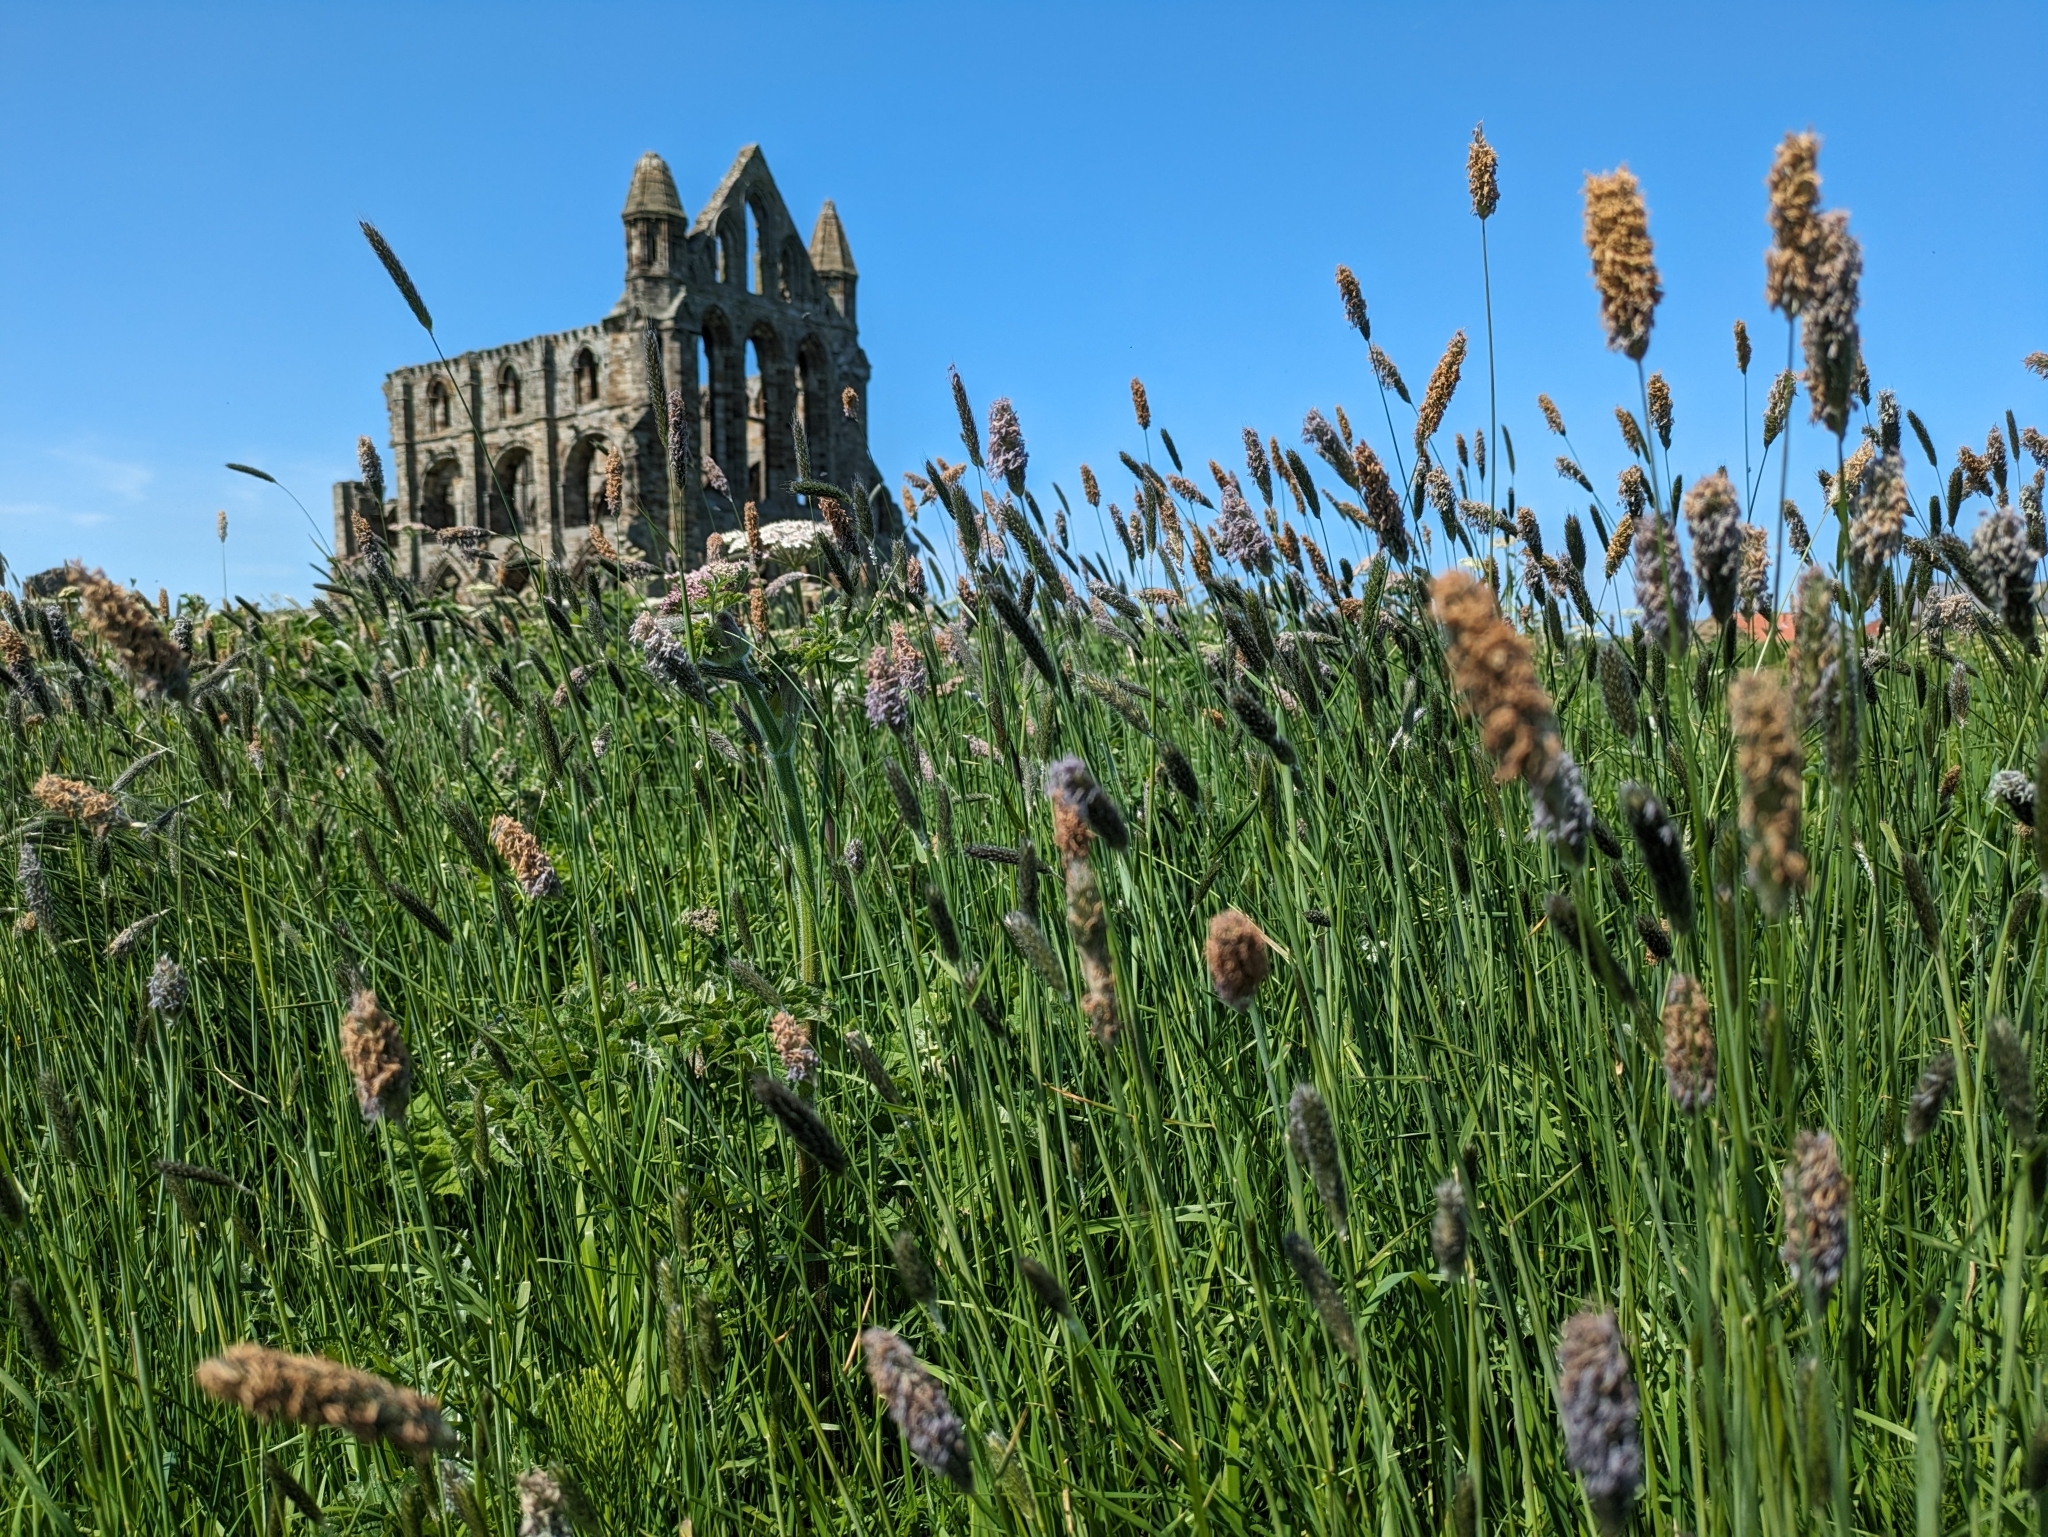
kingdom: Plantae
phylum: Tracheophyta
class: Liliopsida
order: Poales
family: Poaceae
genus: Alopecurus
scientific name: Alopecurus pratensis
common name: Meadow foxtail
